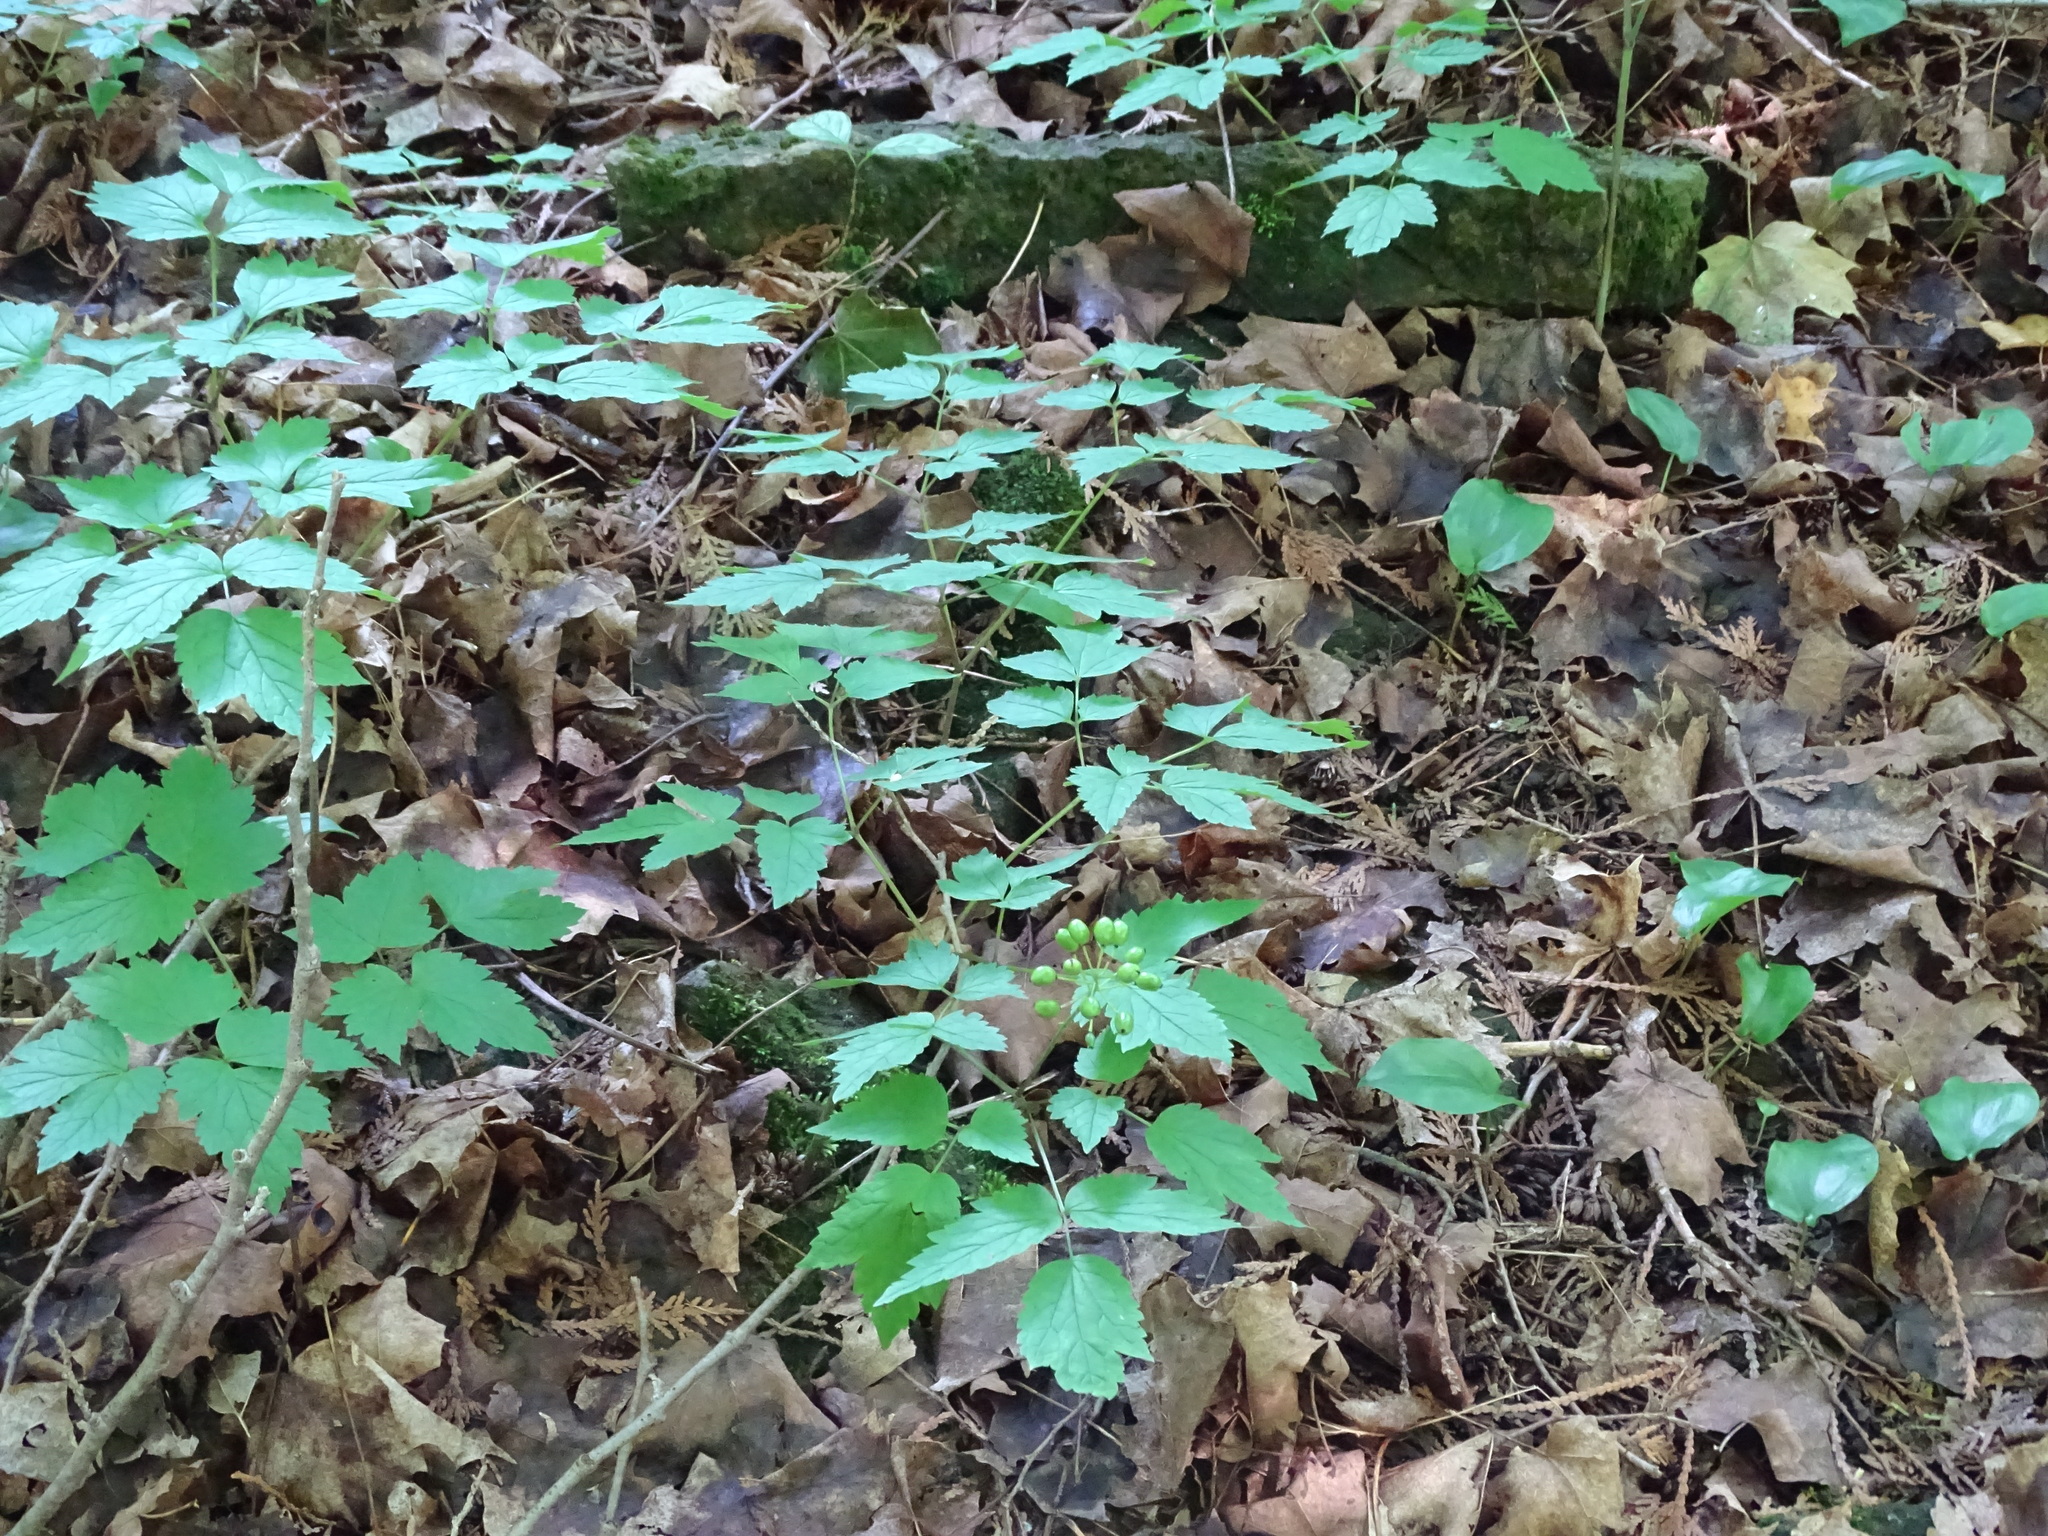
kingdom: Plantae
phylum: Tracheophyta
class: Magnoliopsida
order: Ranunculales
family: Ranunculaceae
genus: Actaea
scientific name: Actaea rubra
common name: Red baneberry
